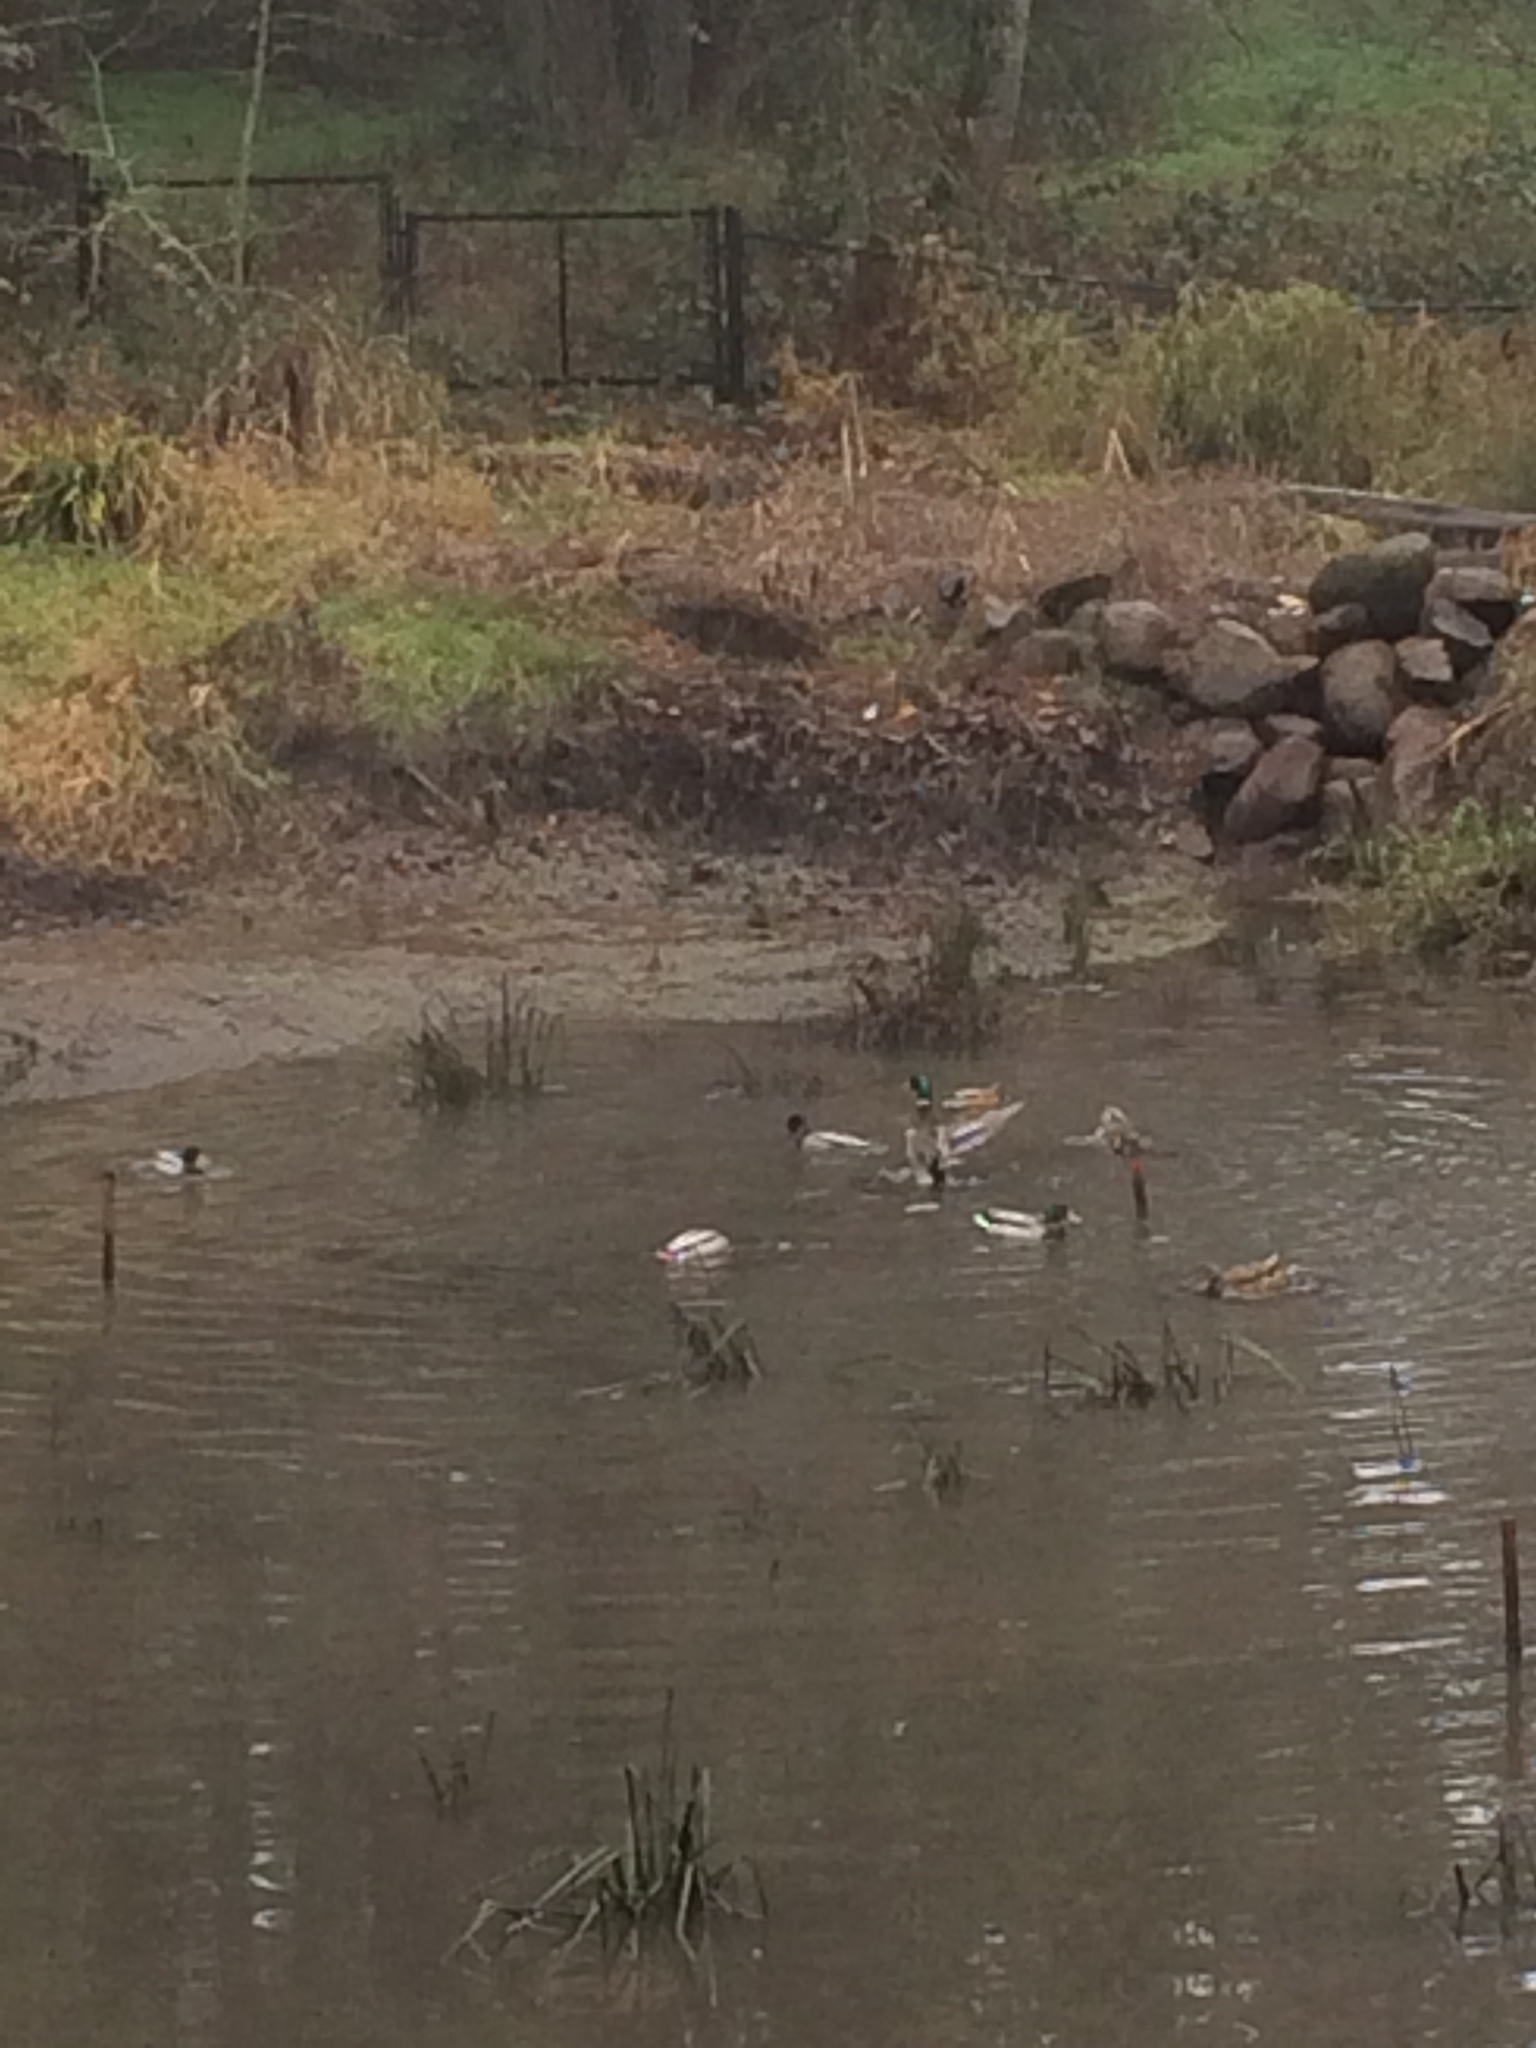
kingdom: Animalia
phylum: Chordata
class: Aves
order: Anseriformes
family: Anatidae
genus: Anas
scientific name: Anas platyrhynchos
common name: Mallard
